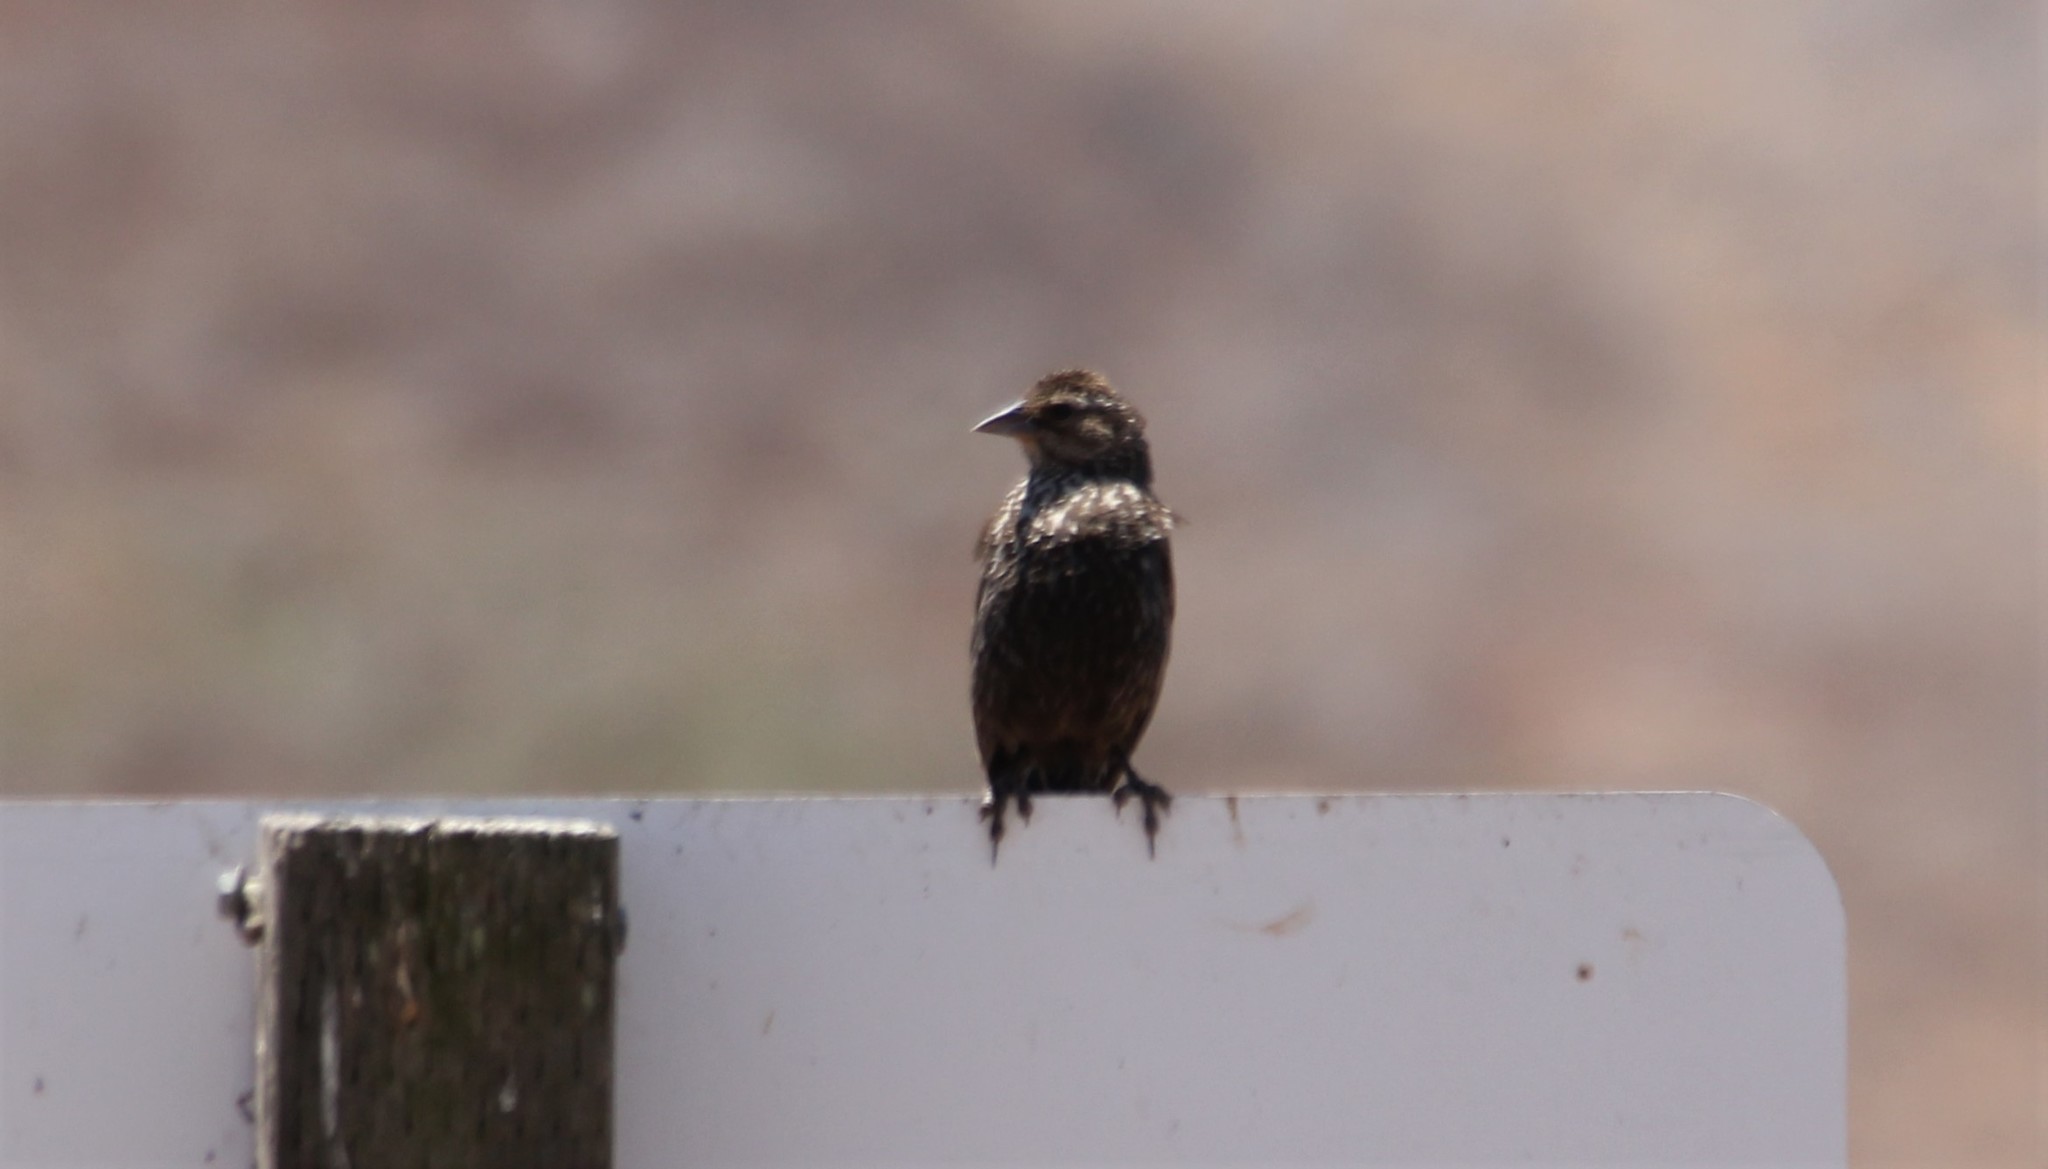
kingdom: Animalia
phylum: Chordata
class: Aves
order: Passeriformes
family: Icteridae
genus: Agelaius
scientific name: Agelaius phoeniceus
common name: Red-winged blackbird
